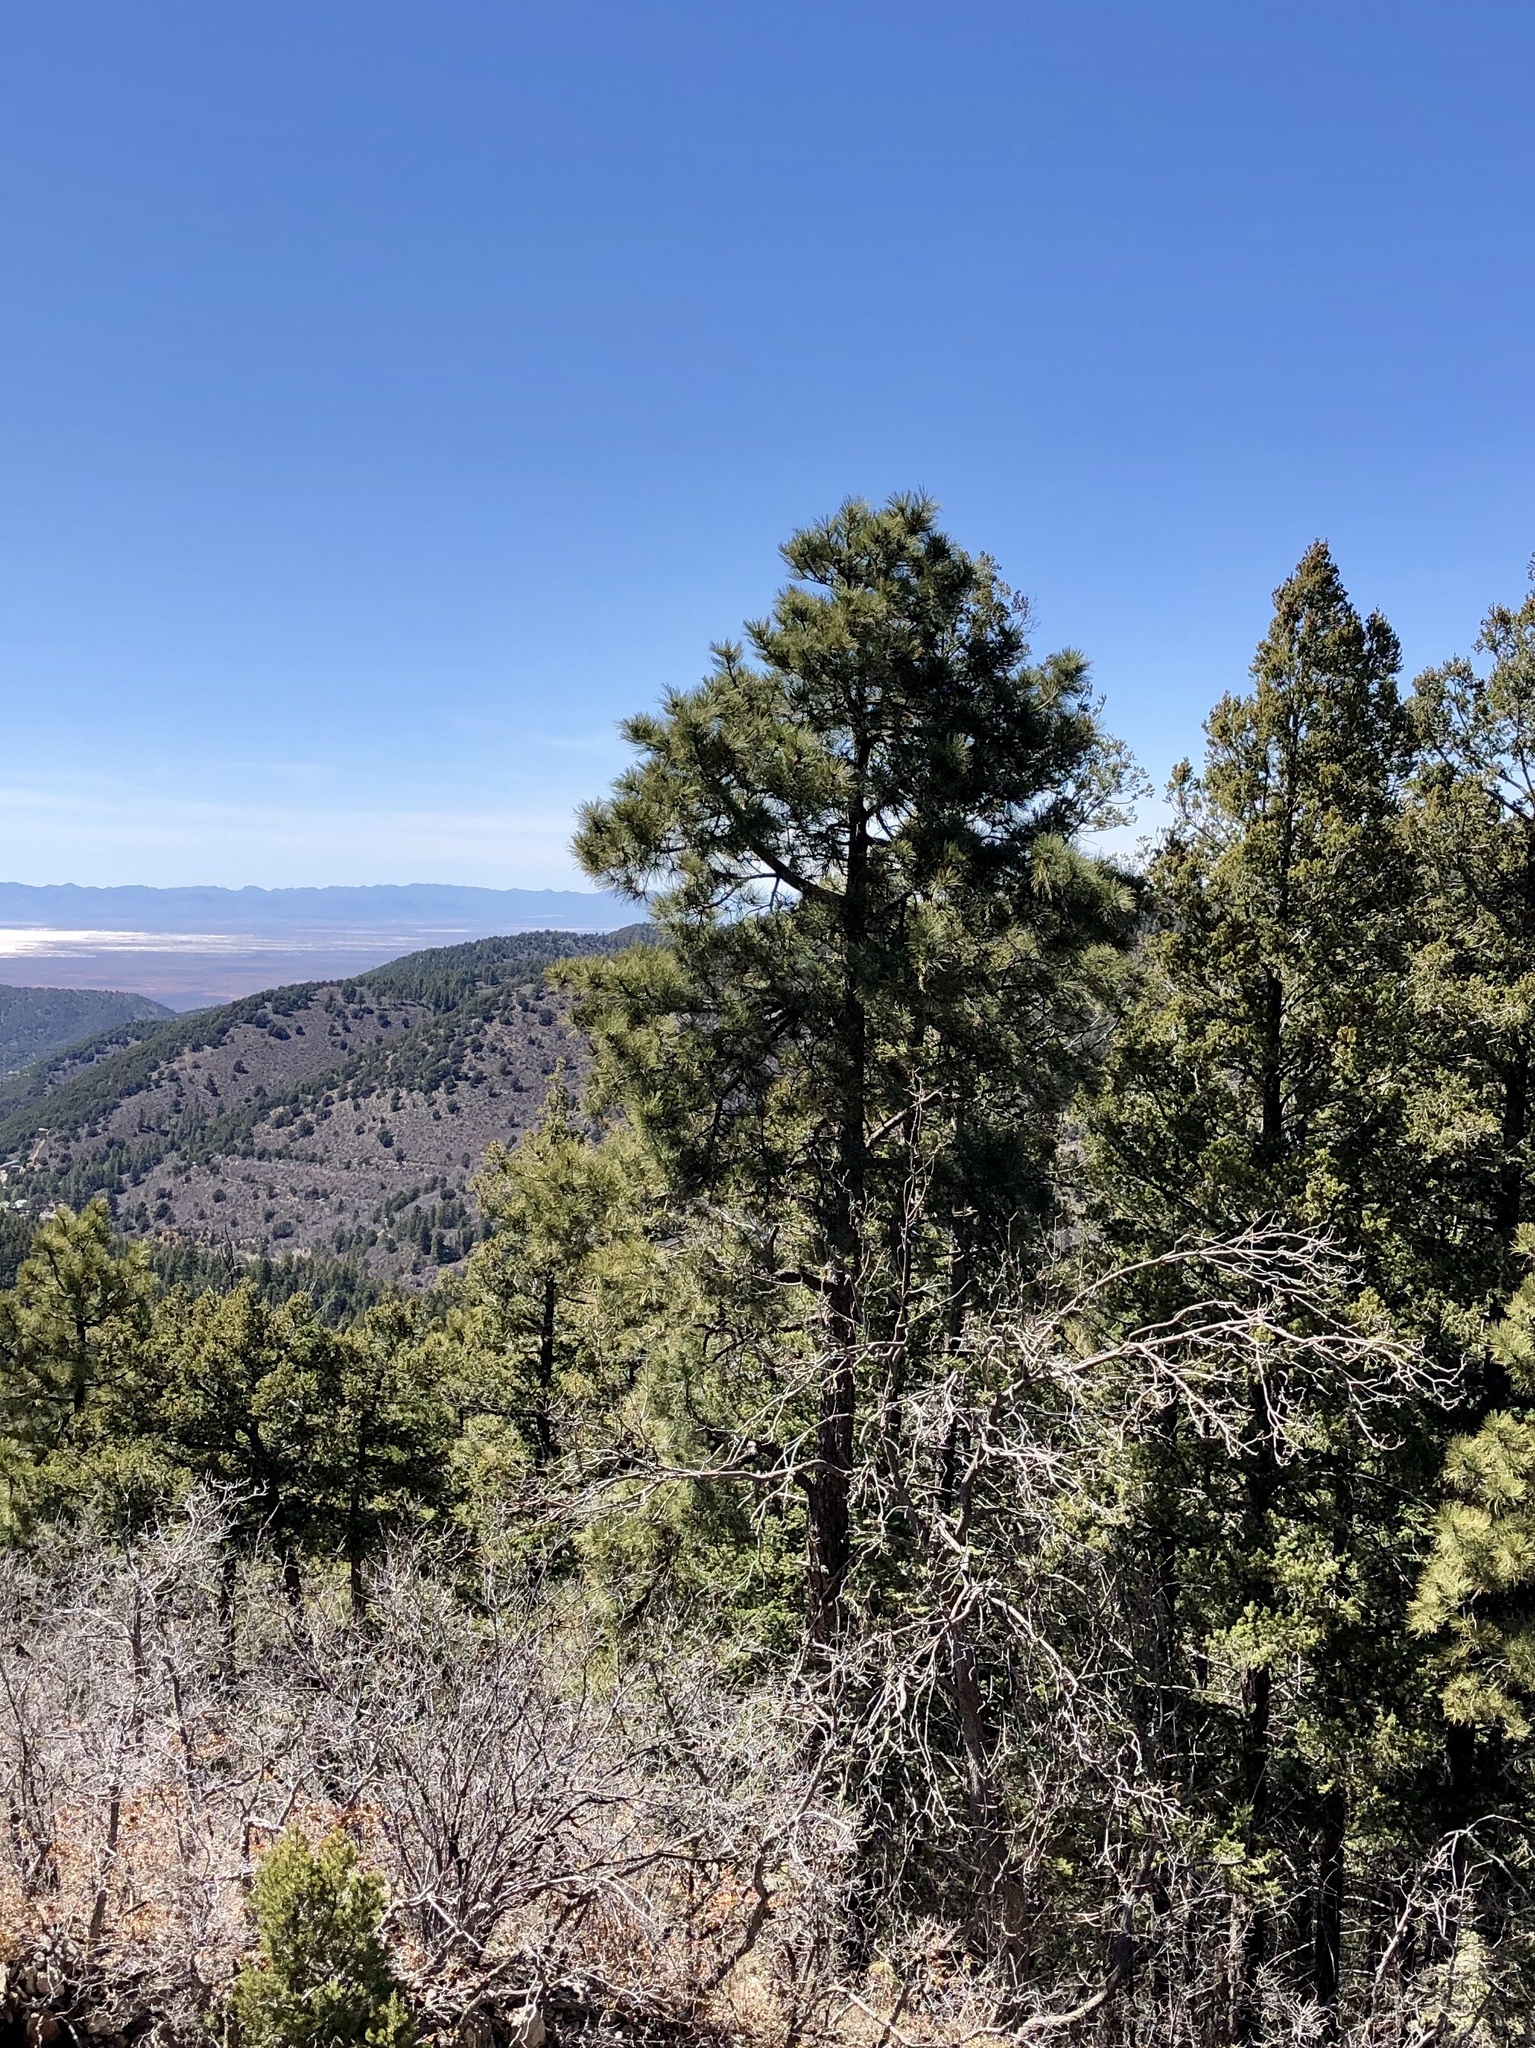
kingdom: Plantae
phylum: Tracheophyta
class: Pinopsida
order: Pinales
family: Pinaceae
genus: Pinus
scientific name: Pinus ponderosa
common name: Western yellow-pine
